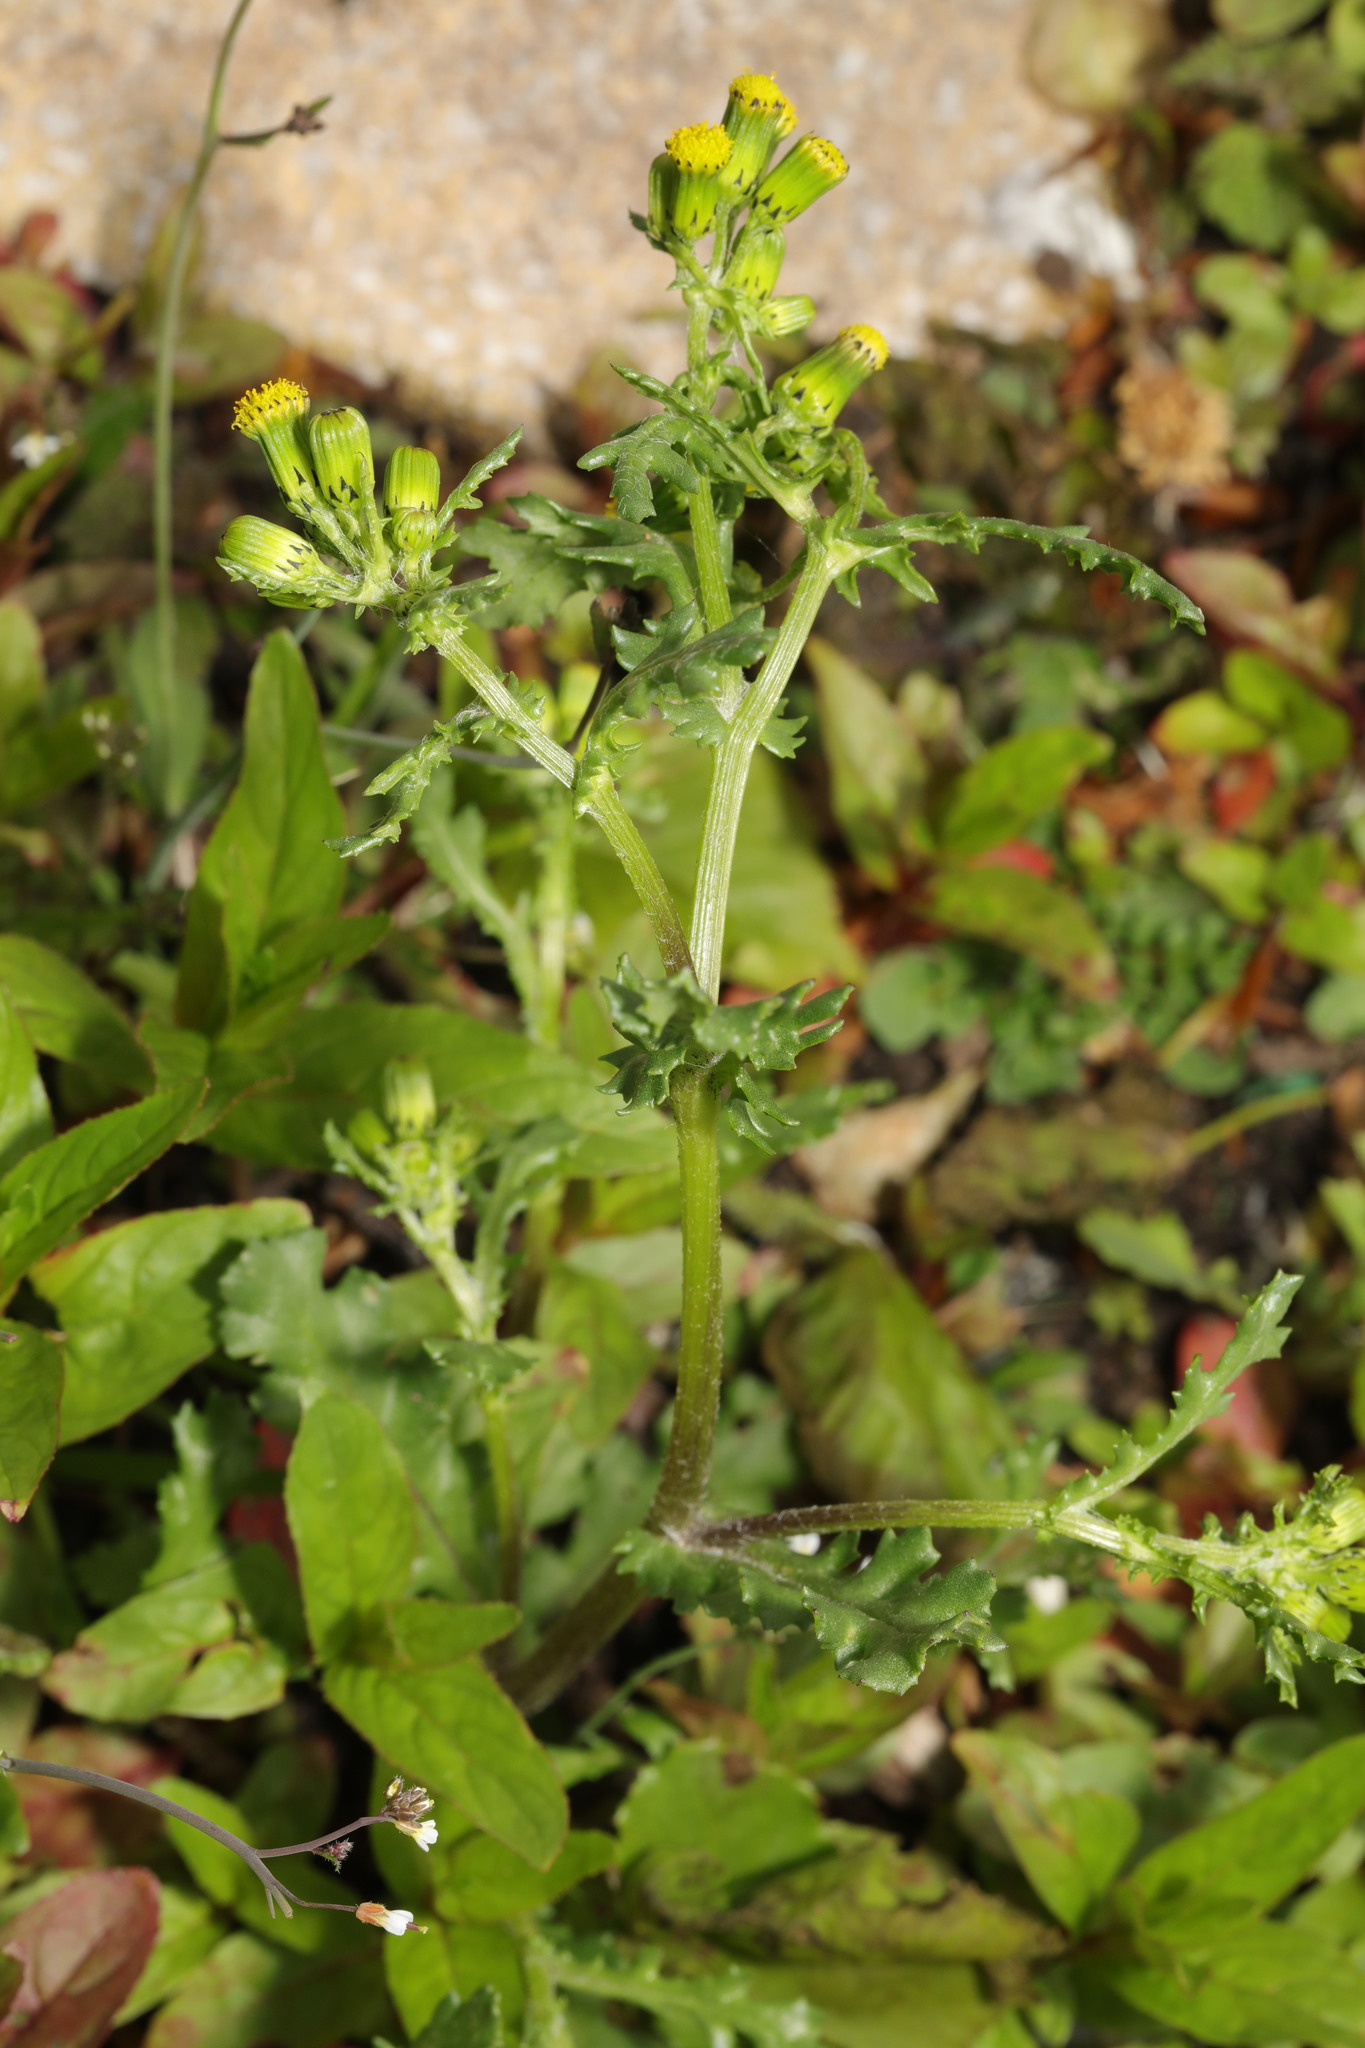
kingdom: Plantae
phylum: Tracheophyta
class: Magnoliopsida
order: Asterales
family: Asteraceae
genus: Senecio
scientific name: Senecio vulgaris
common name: Old-man-in-the-spring
